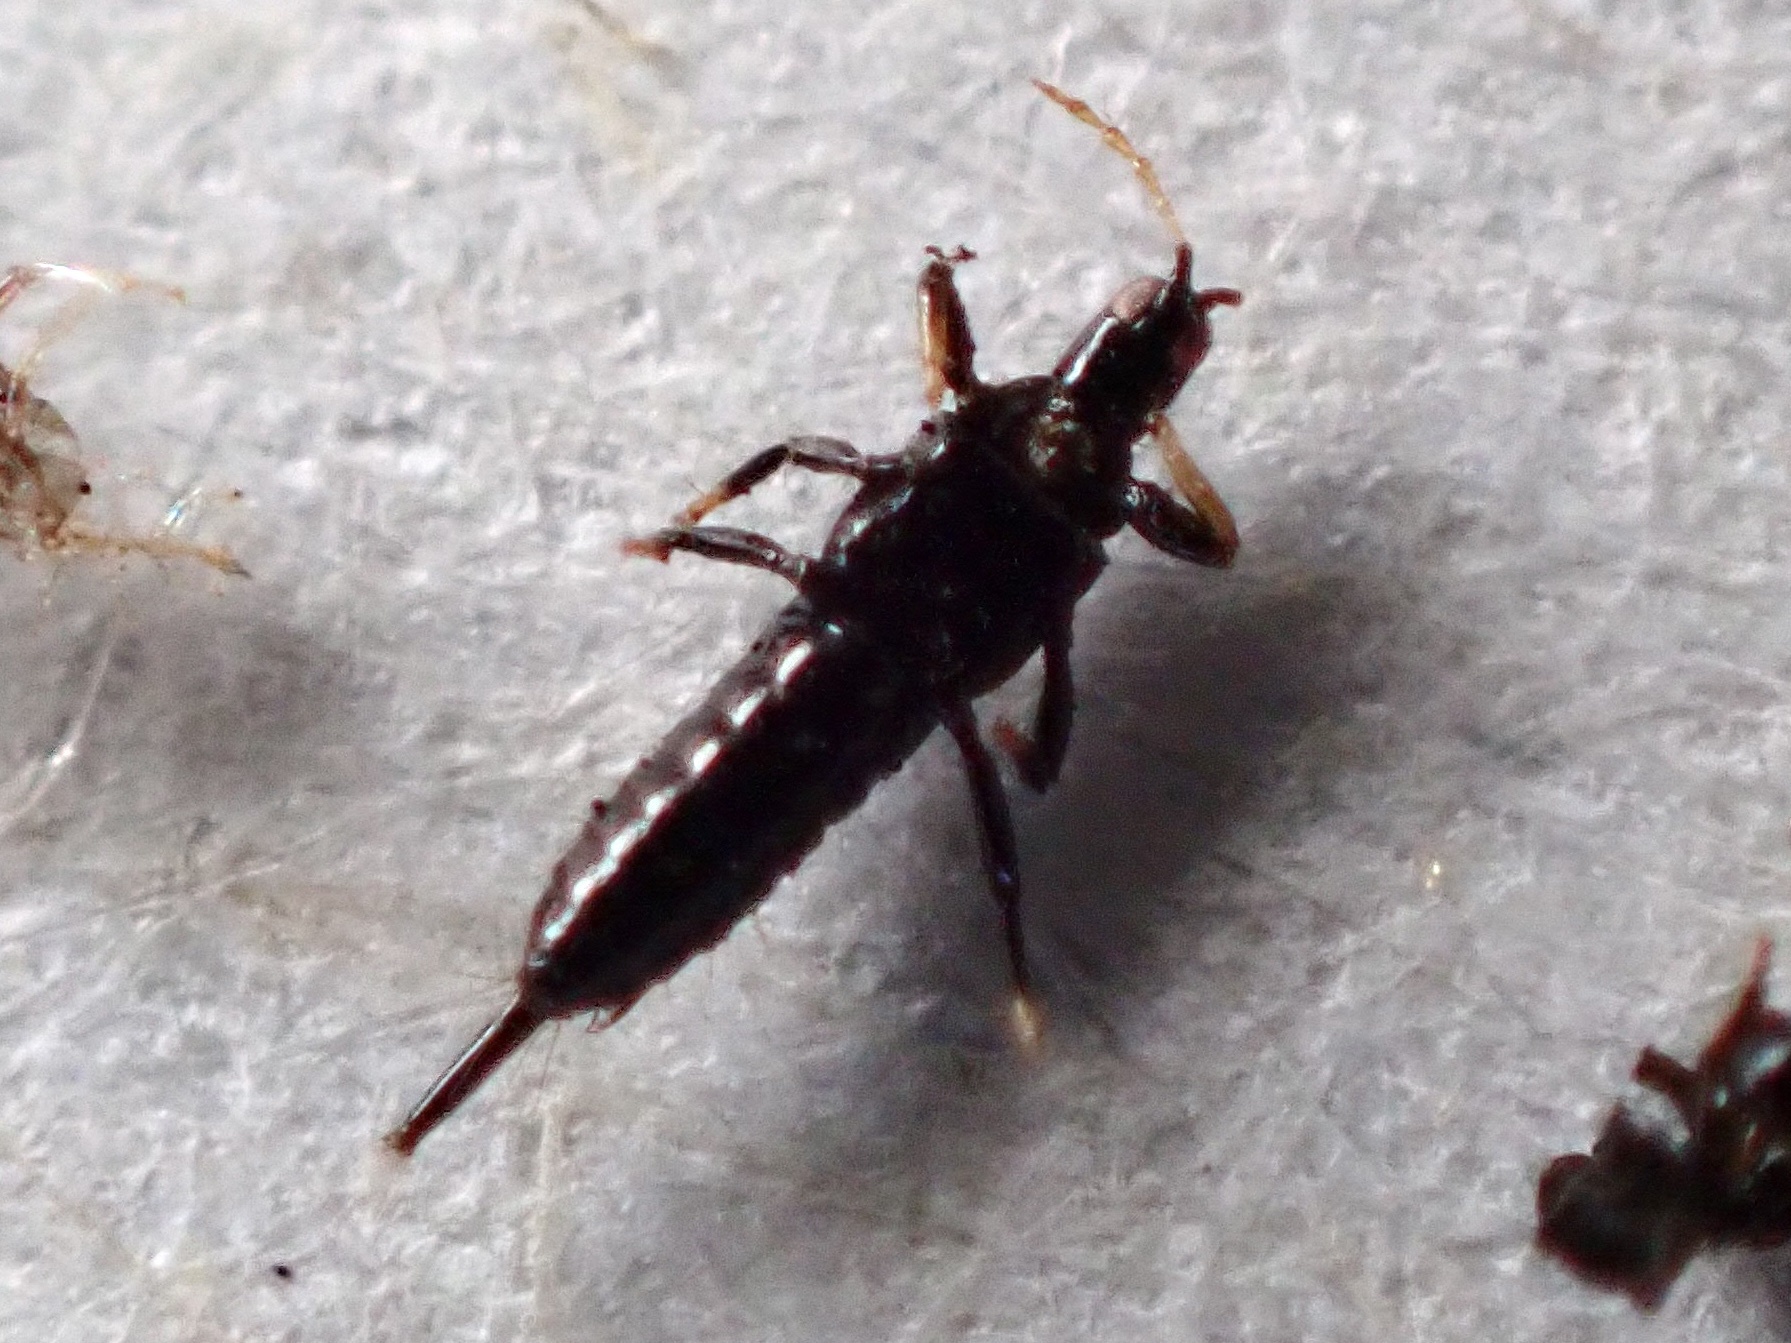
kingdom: Animalia
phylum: Arthropoda
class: Insecta
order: Thysanoptera
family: Phlaeothripidae
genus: Gynaikothrips
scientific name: Gynaikothrips uzeli
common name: Leaf-gall thrips
